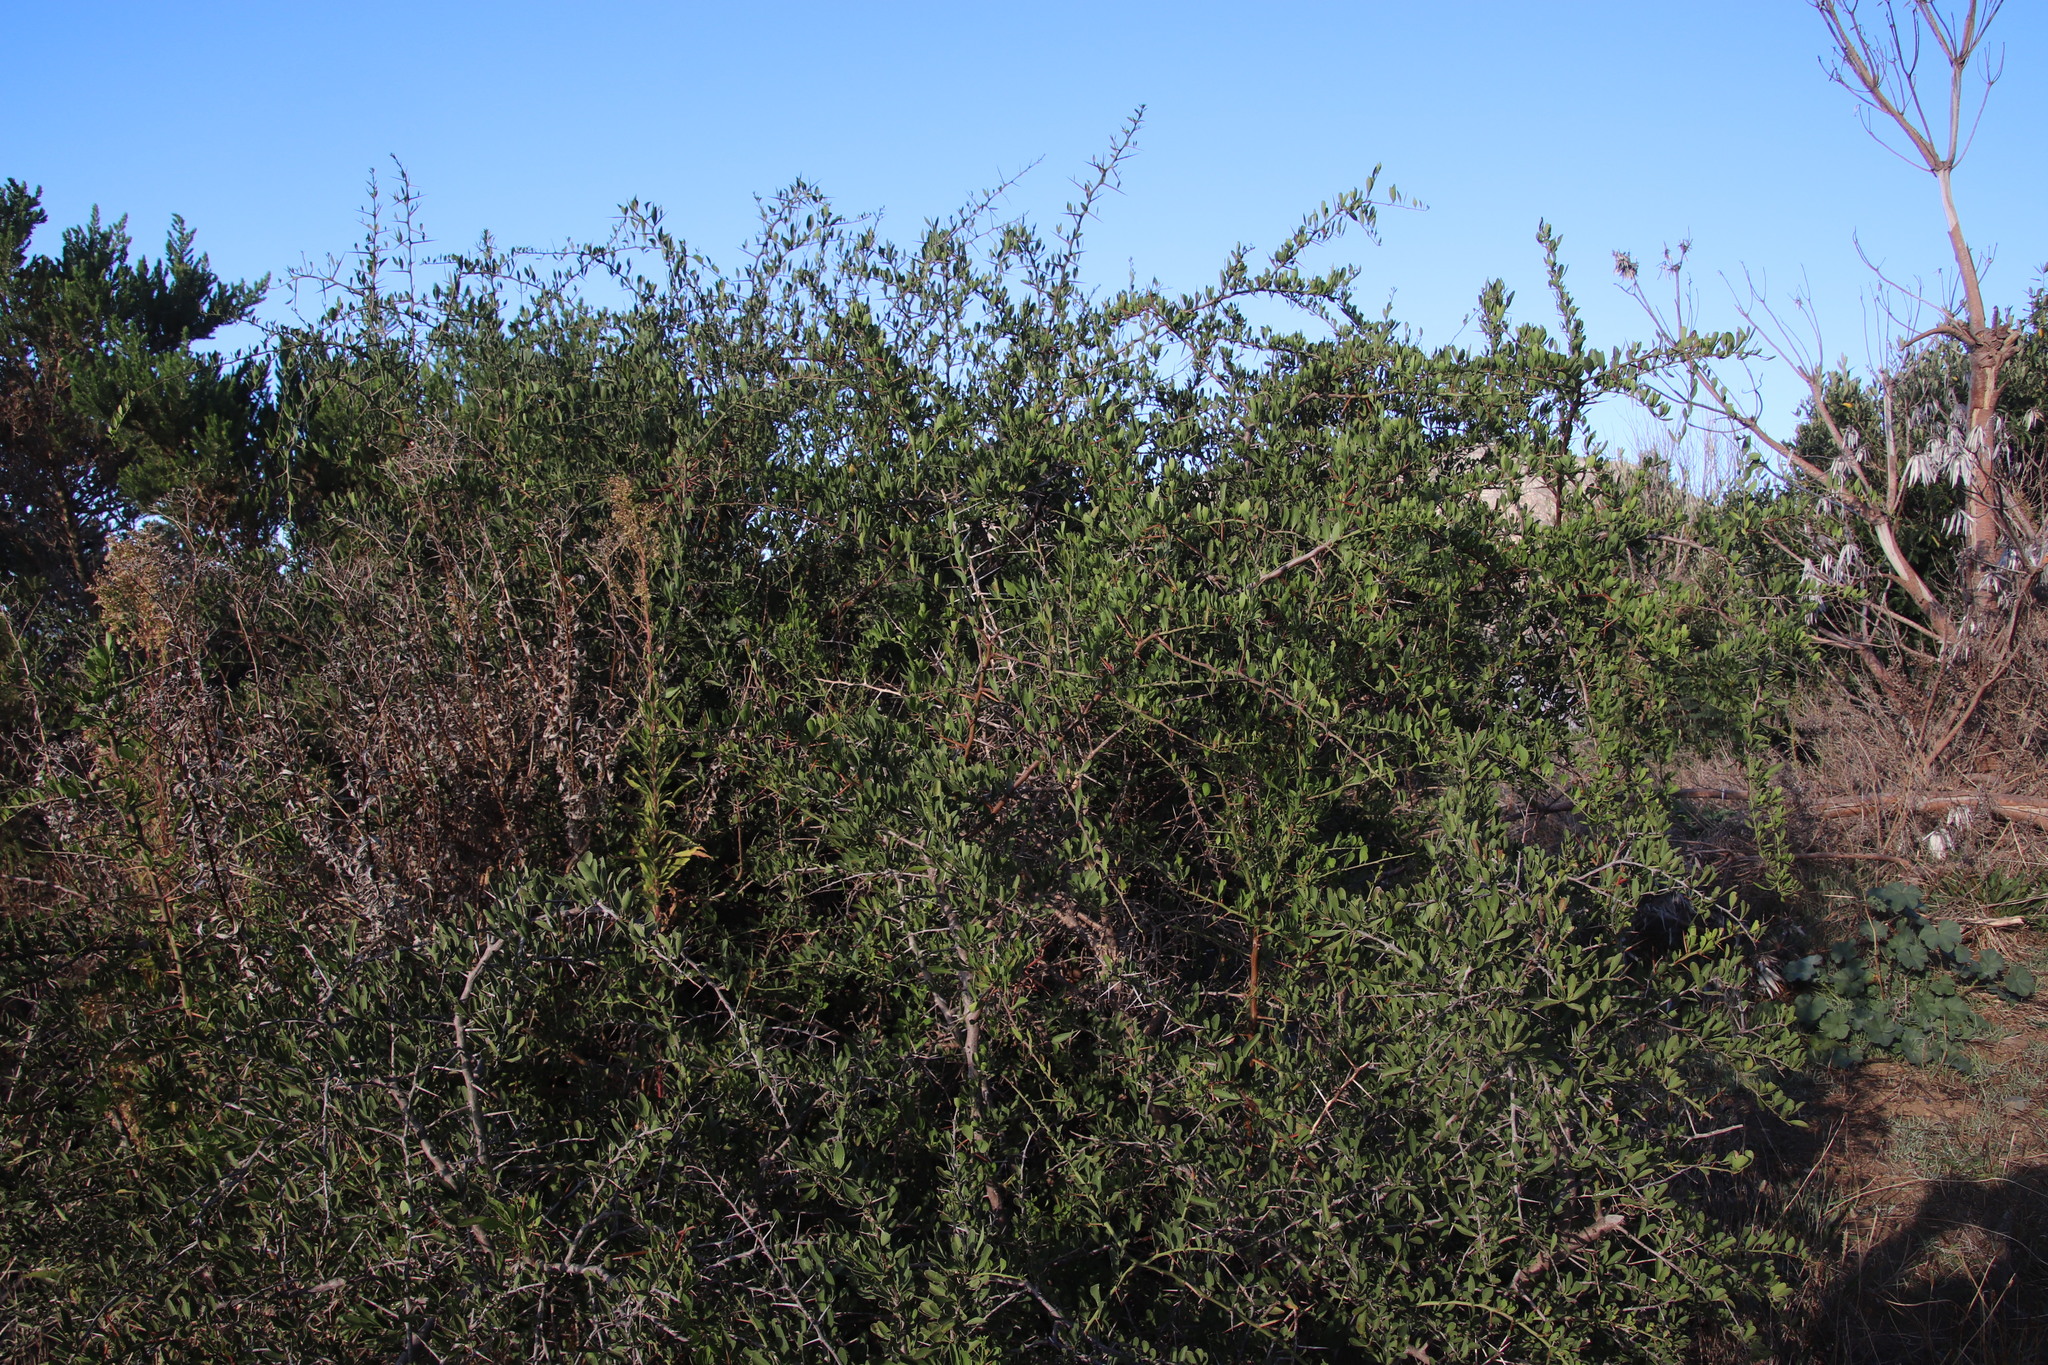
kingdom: Plantae
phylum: Tracheophyta
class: Magnoliopsida
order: Celastrales
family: Celastraceae
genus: Gymnosporia
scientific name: Gymnosporia buxifolia
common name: Common spike-thorn
